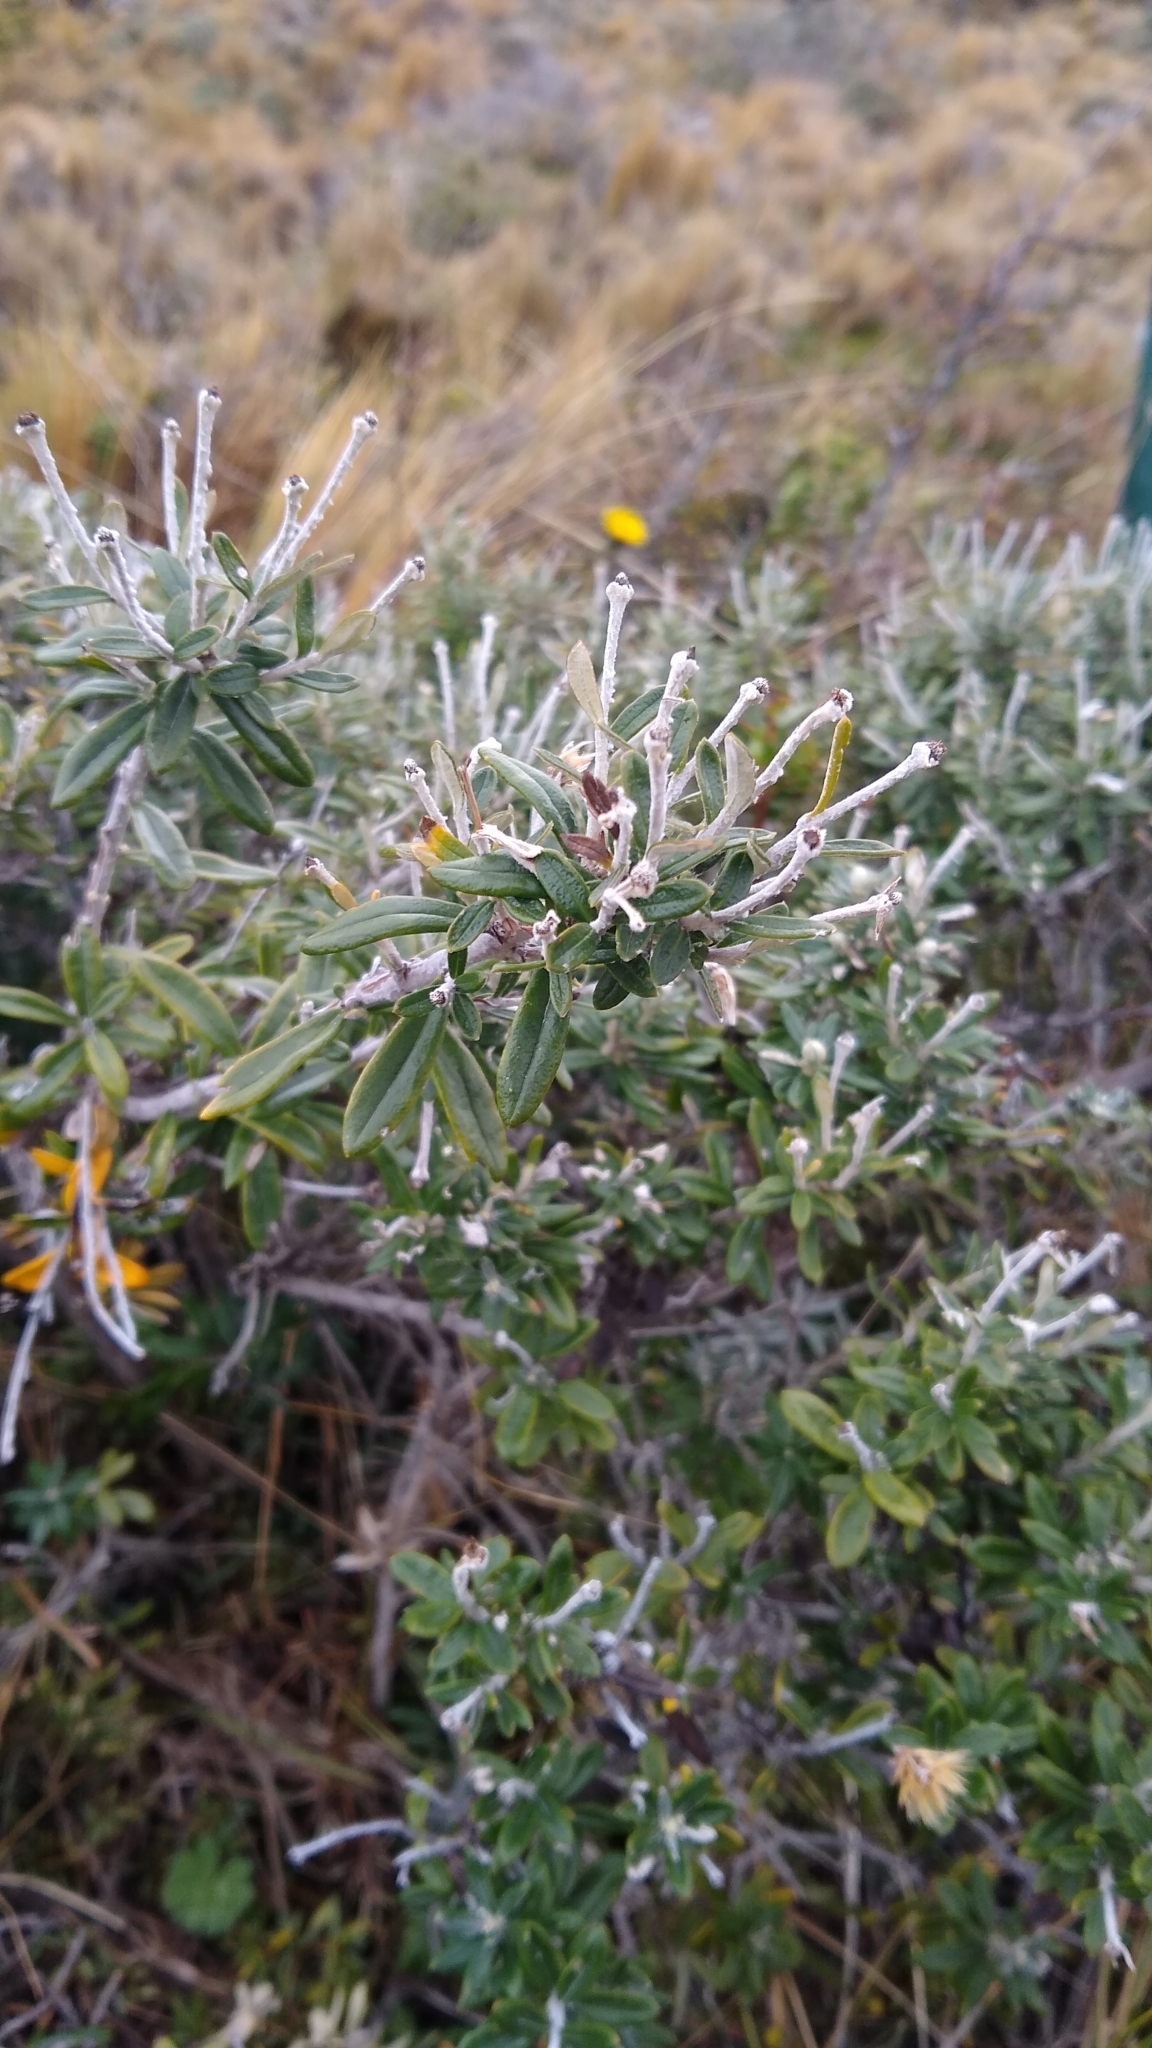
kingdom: Plantae
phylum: Tracheophyta
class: Magnoliopsida
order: Asterales
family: Asteraceae
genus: Chiliotrichum
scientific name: Chiliotrichum diffusum
